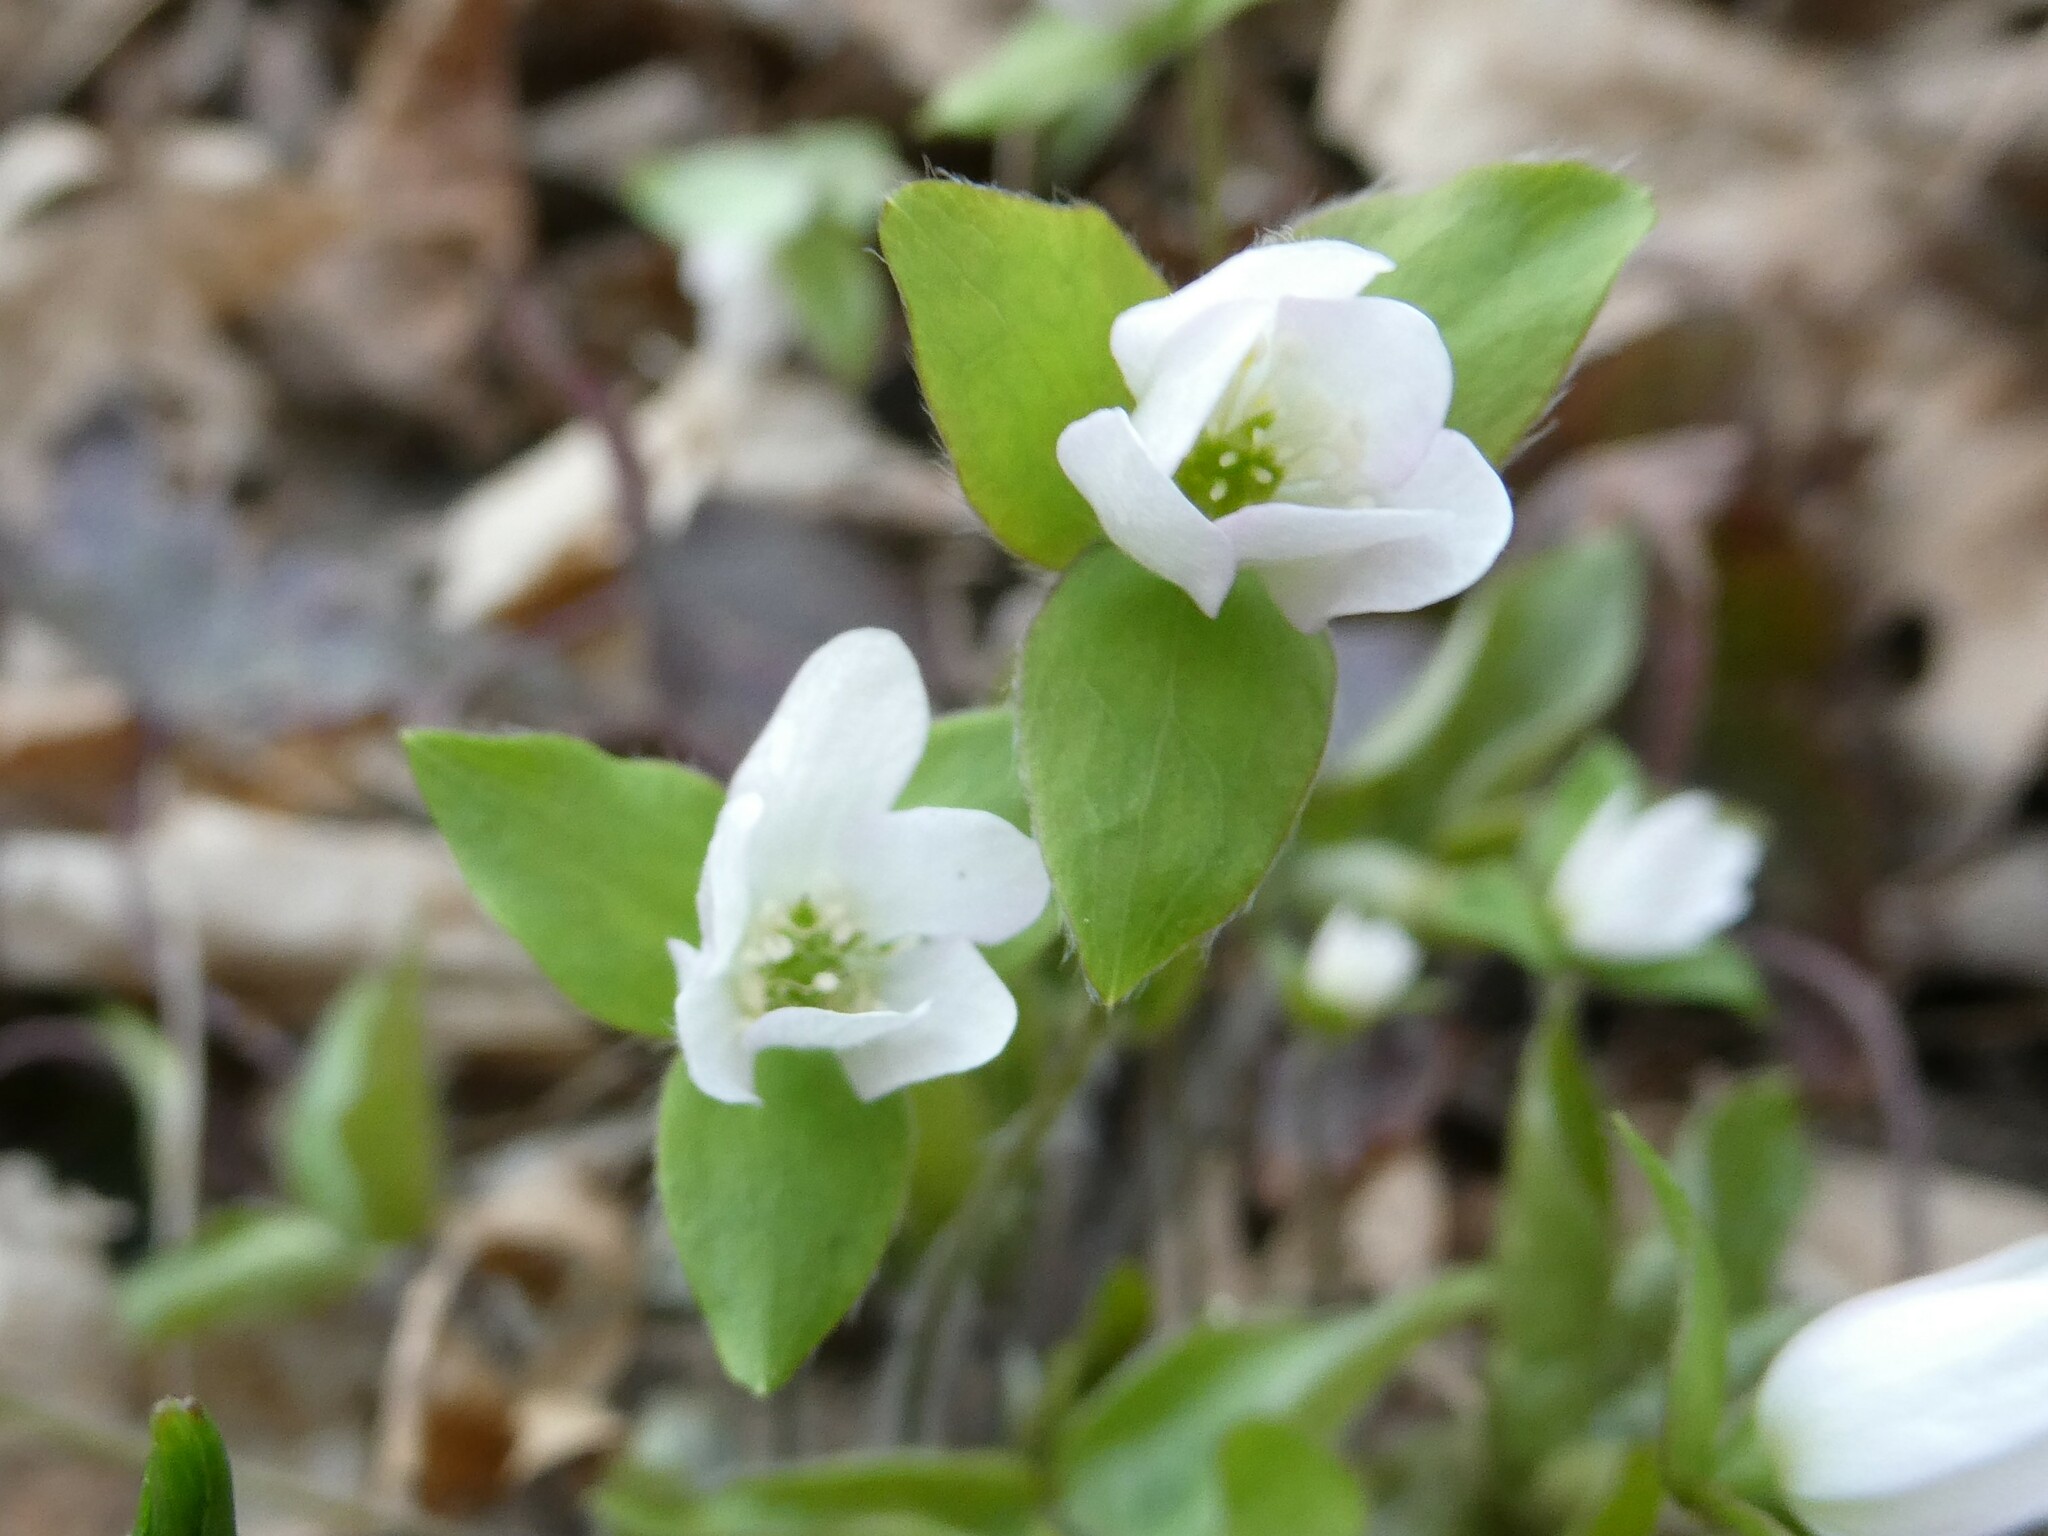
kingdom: Plantae
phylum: Tracheophyta
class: Magnoliopsida
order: Ranunculales
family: Ranunculaceae
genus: Hepatica
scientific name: Hepatica acutiloba
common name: Sharp-lobed hepatica
